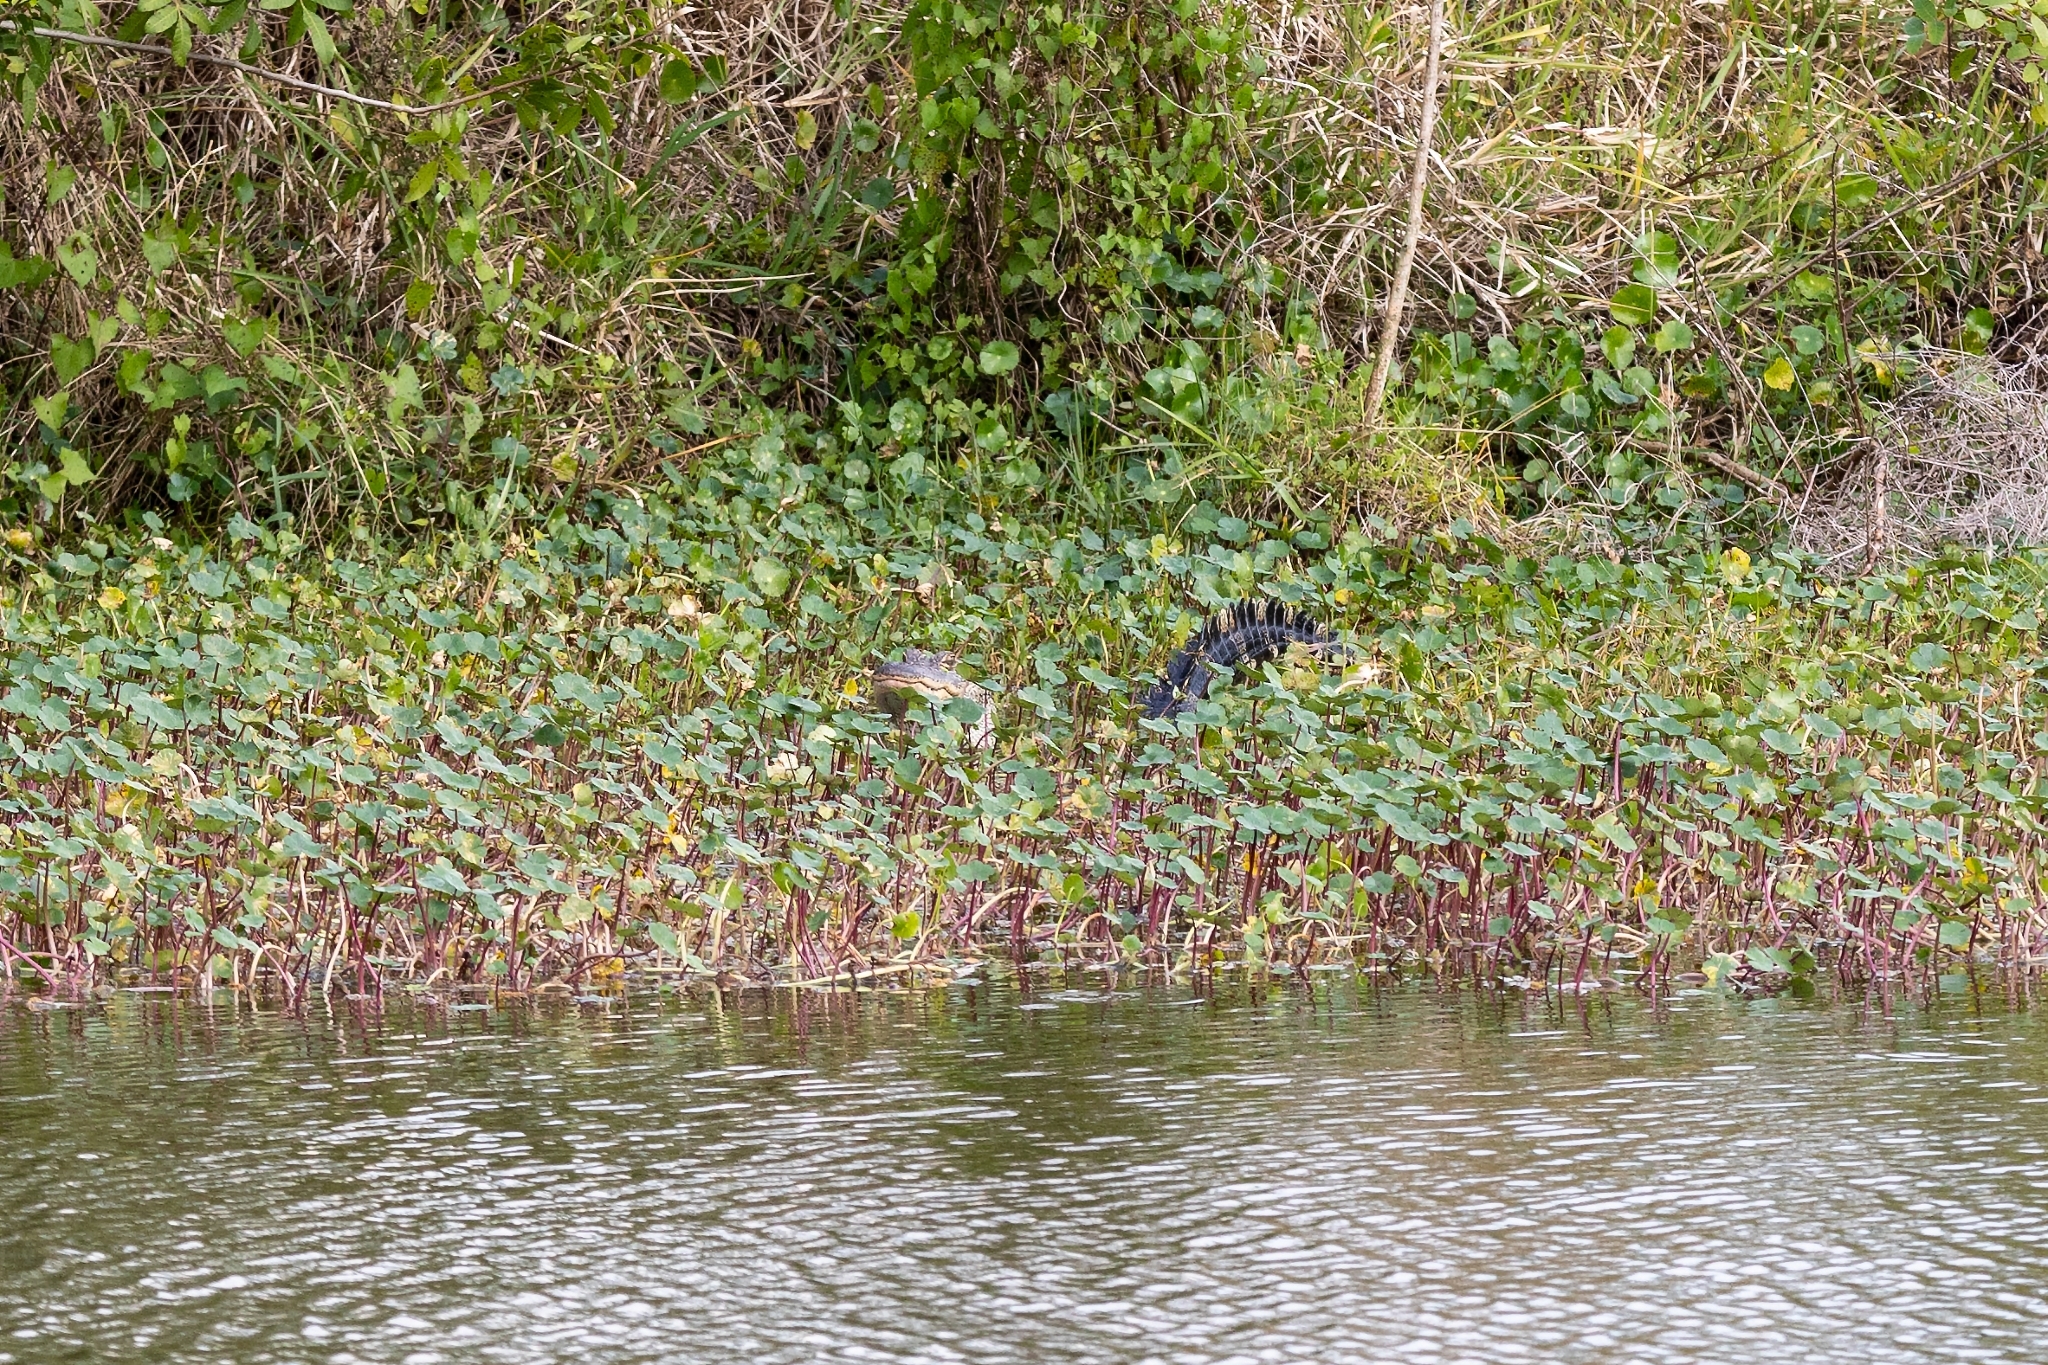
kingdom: Animalia
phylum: Chordata
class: Crocodylia
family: Alligatoridae
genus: Alligator
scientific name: Alligator mississippiensis
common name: American alligator
